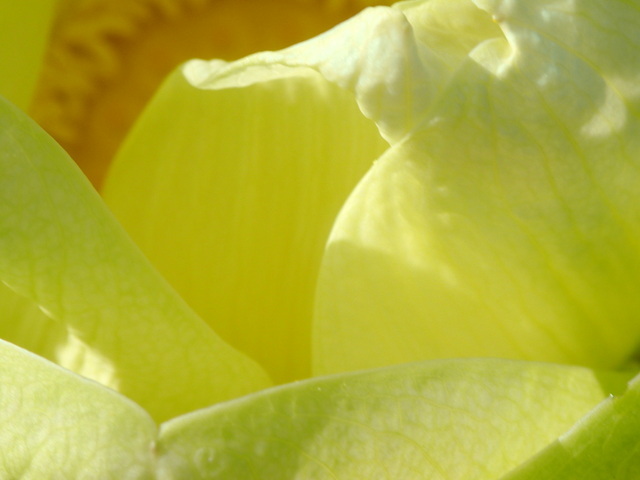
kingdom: Plantae
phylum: Tracheophyta
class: Magnoliopsida
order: Proteales
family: Nelumbonaceae
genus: Nelumbo
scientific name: Nelumbo lutea
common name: American lotus
